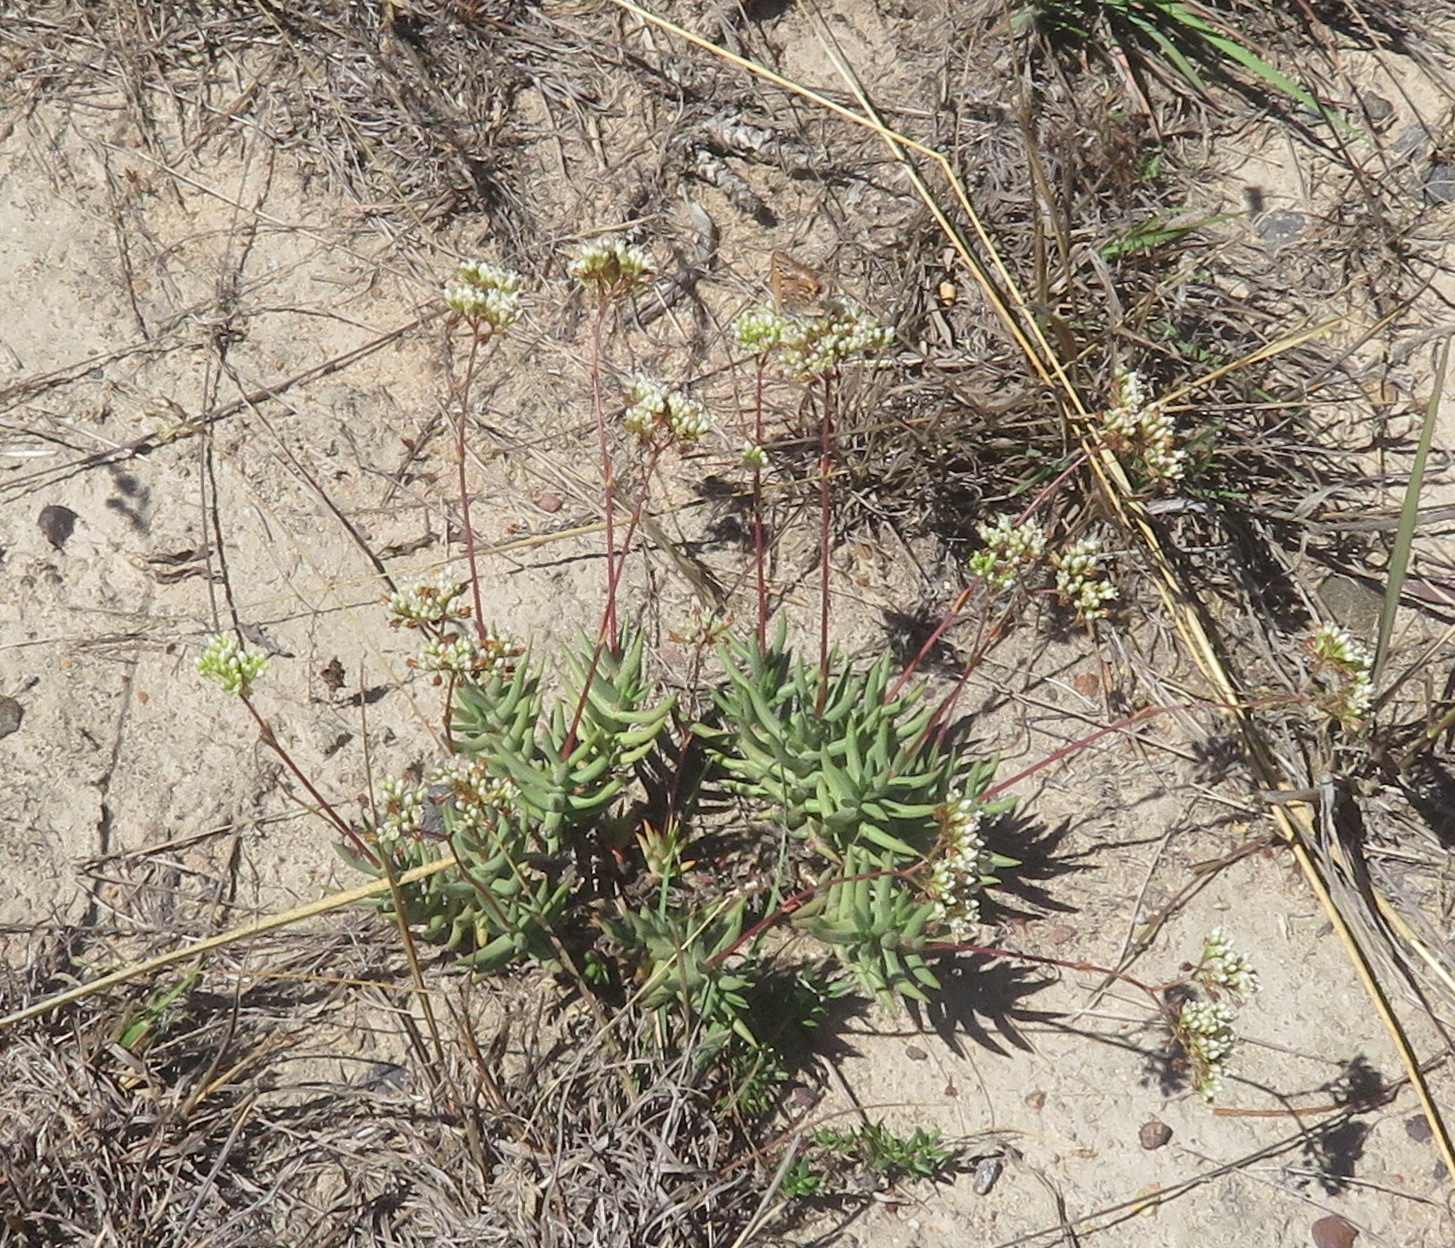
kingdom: Plantae
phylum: Tracheophyta
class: Magnoliopsida
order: Saxifragales
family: Crassulaceae
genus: Crassula
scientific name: Crassula tetragona
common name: Pygmyweed
